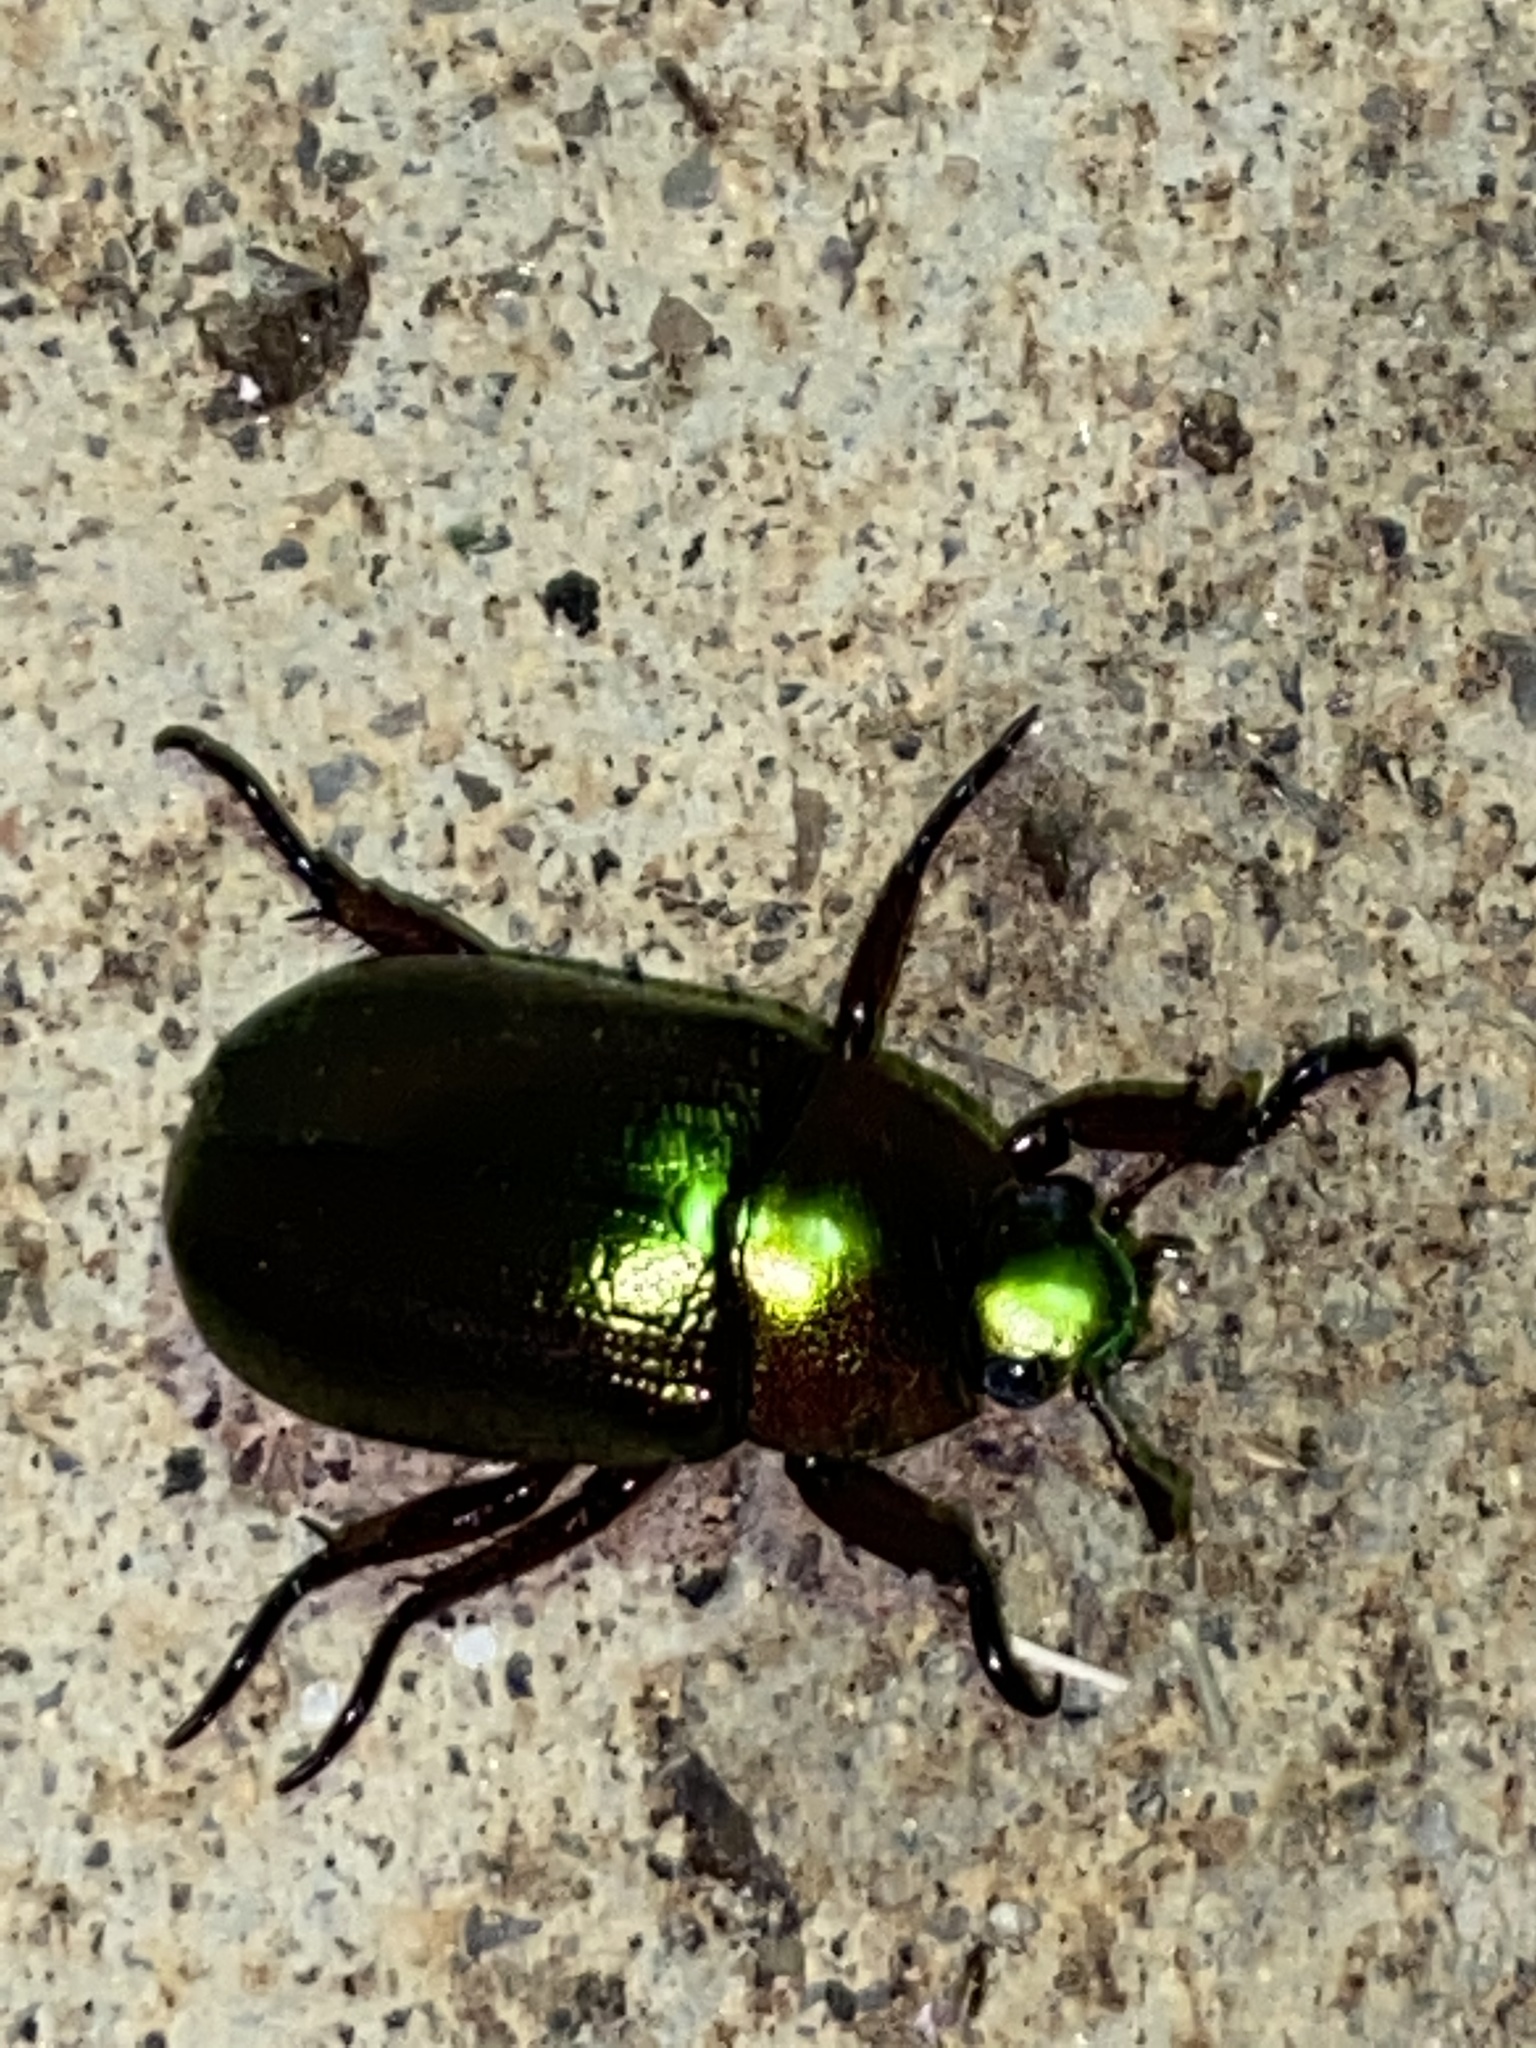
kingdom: Animalia
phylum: Arthropoda
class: Insecta
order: Coleoptera
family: Scarabaeidae
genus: Pelidnota
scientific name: Pelidnota cyanipes
